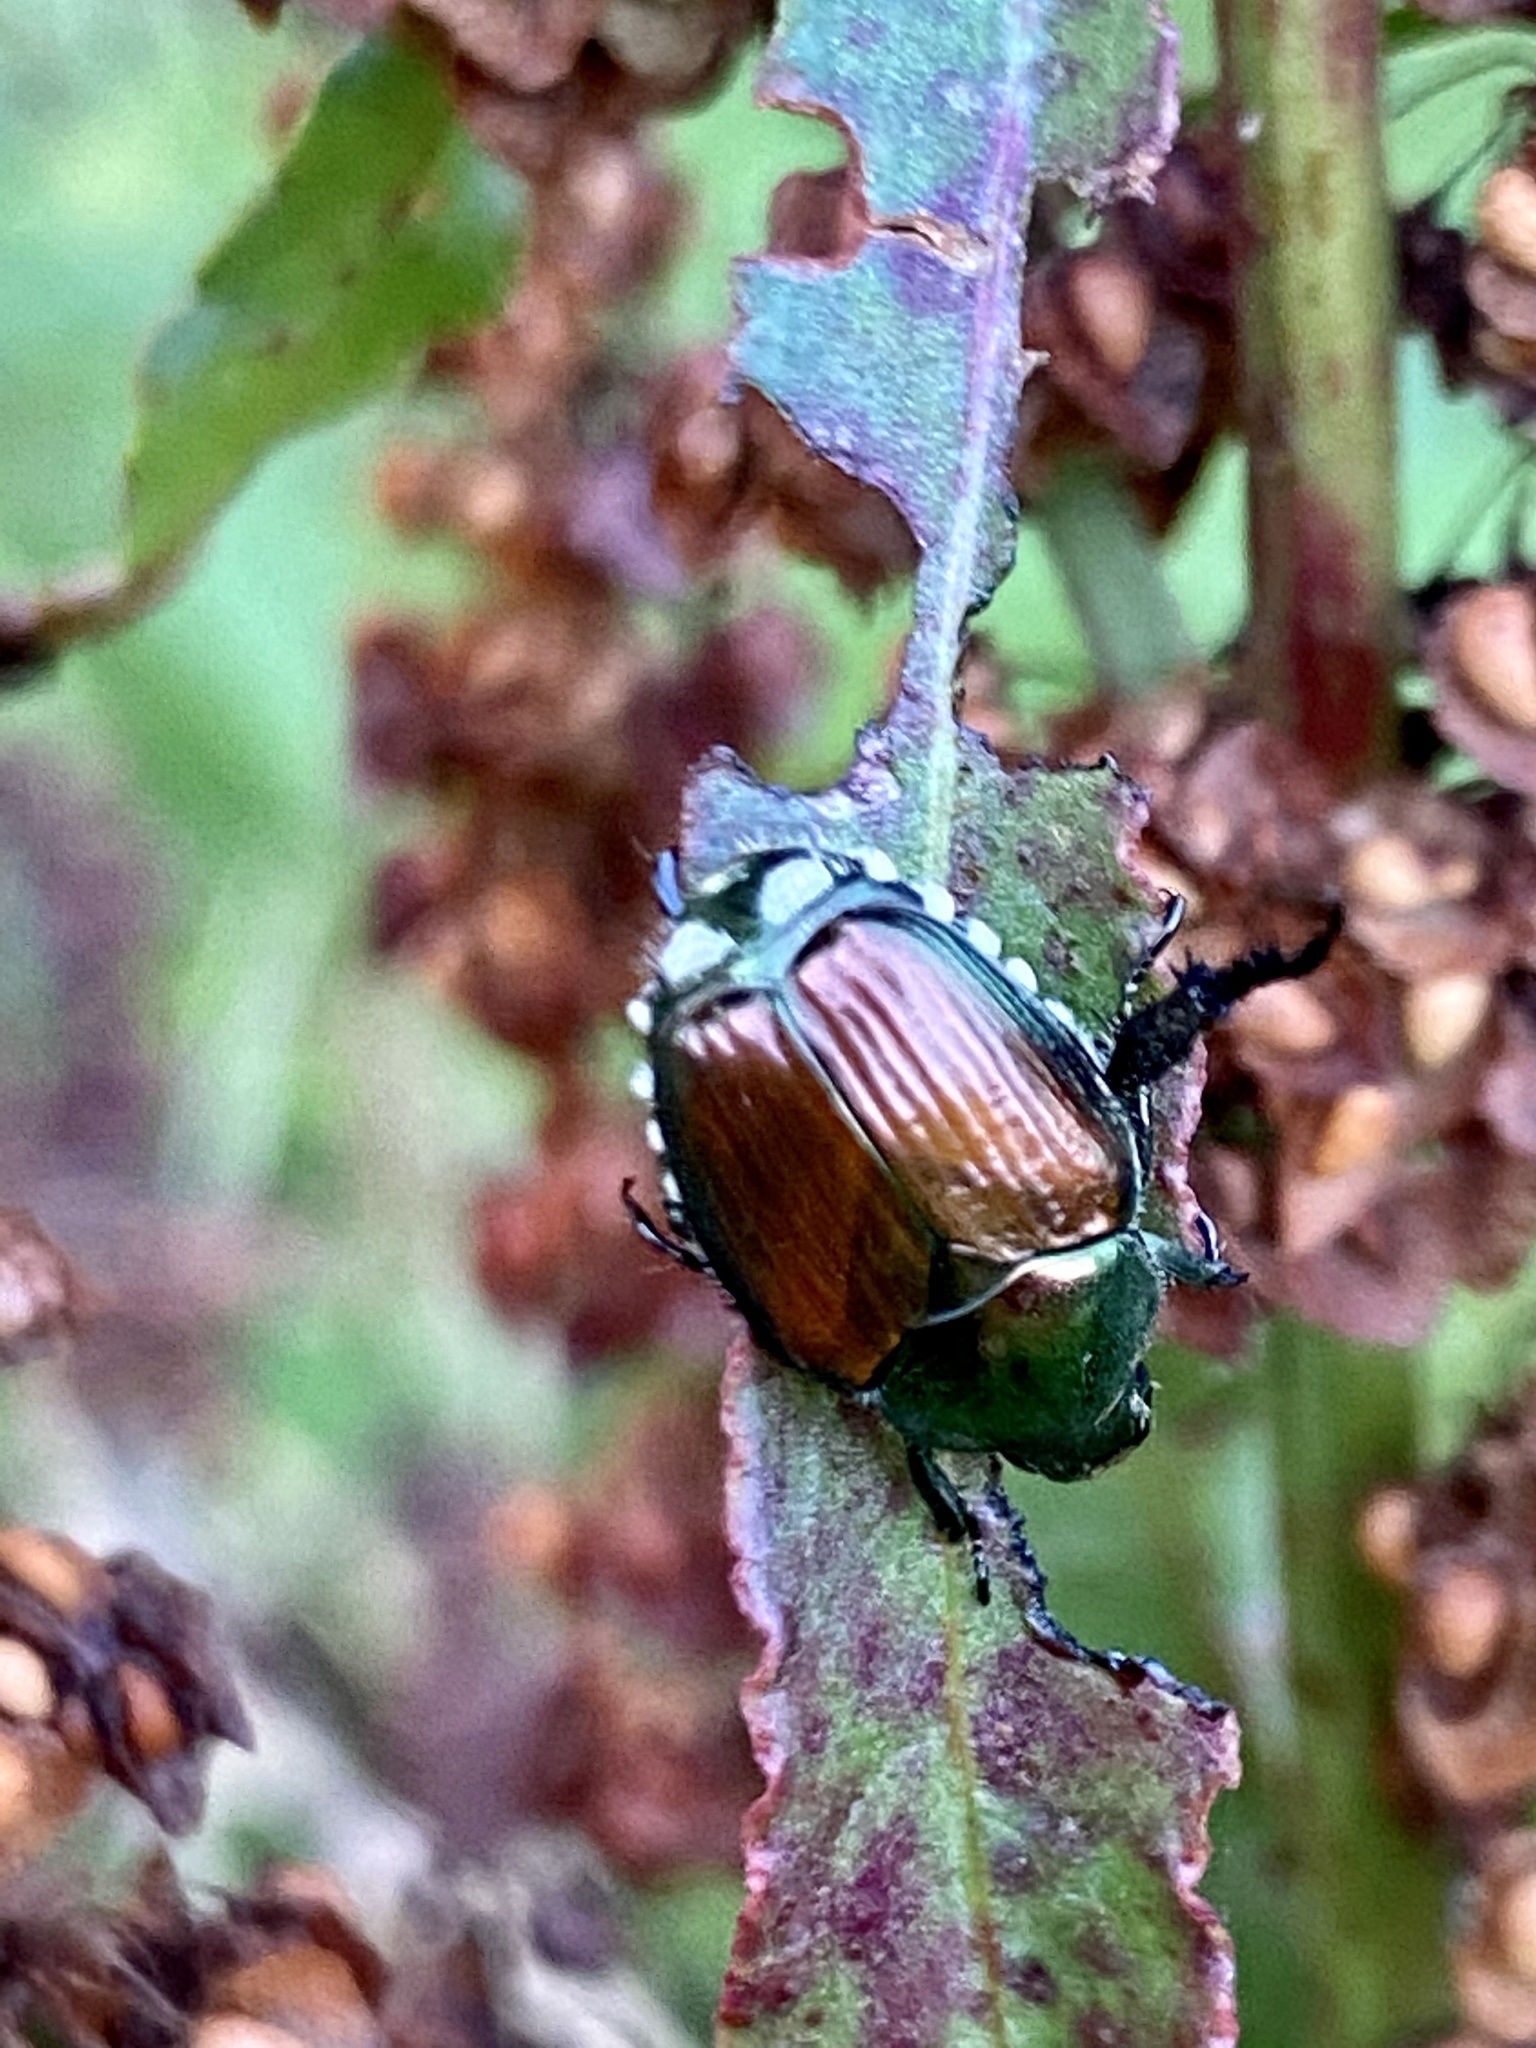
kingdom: Animalia
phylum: Arthropoda
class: Insecta
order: Coleoptera
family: Scarabaeidae
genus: Popillia
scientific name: Popillia japonica
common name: Japanese beetle
